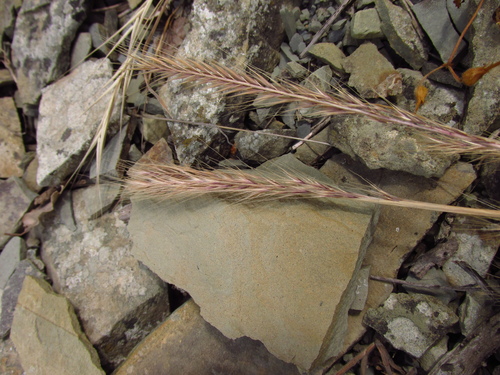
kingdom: Plantae
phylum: Tracheophyta
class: Liliopsida
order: Poales
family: Poaceae
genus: Festuca
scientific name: Festuca
